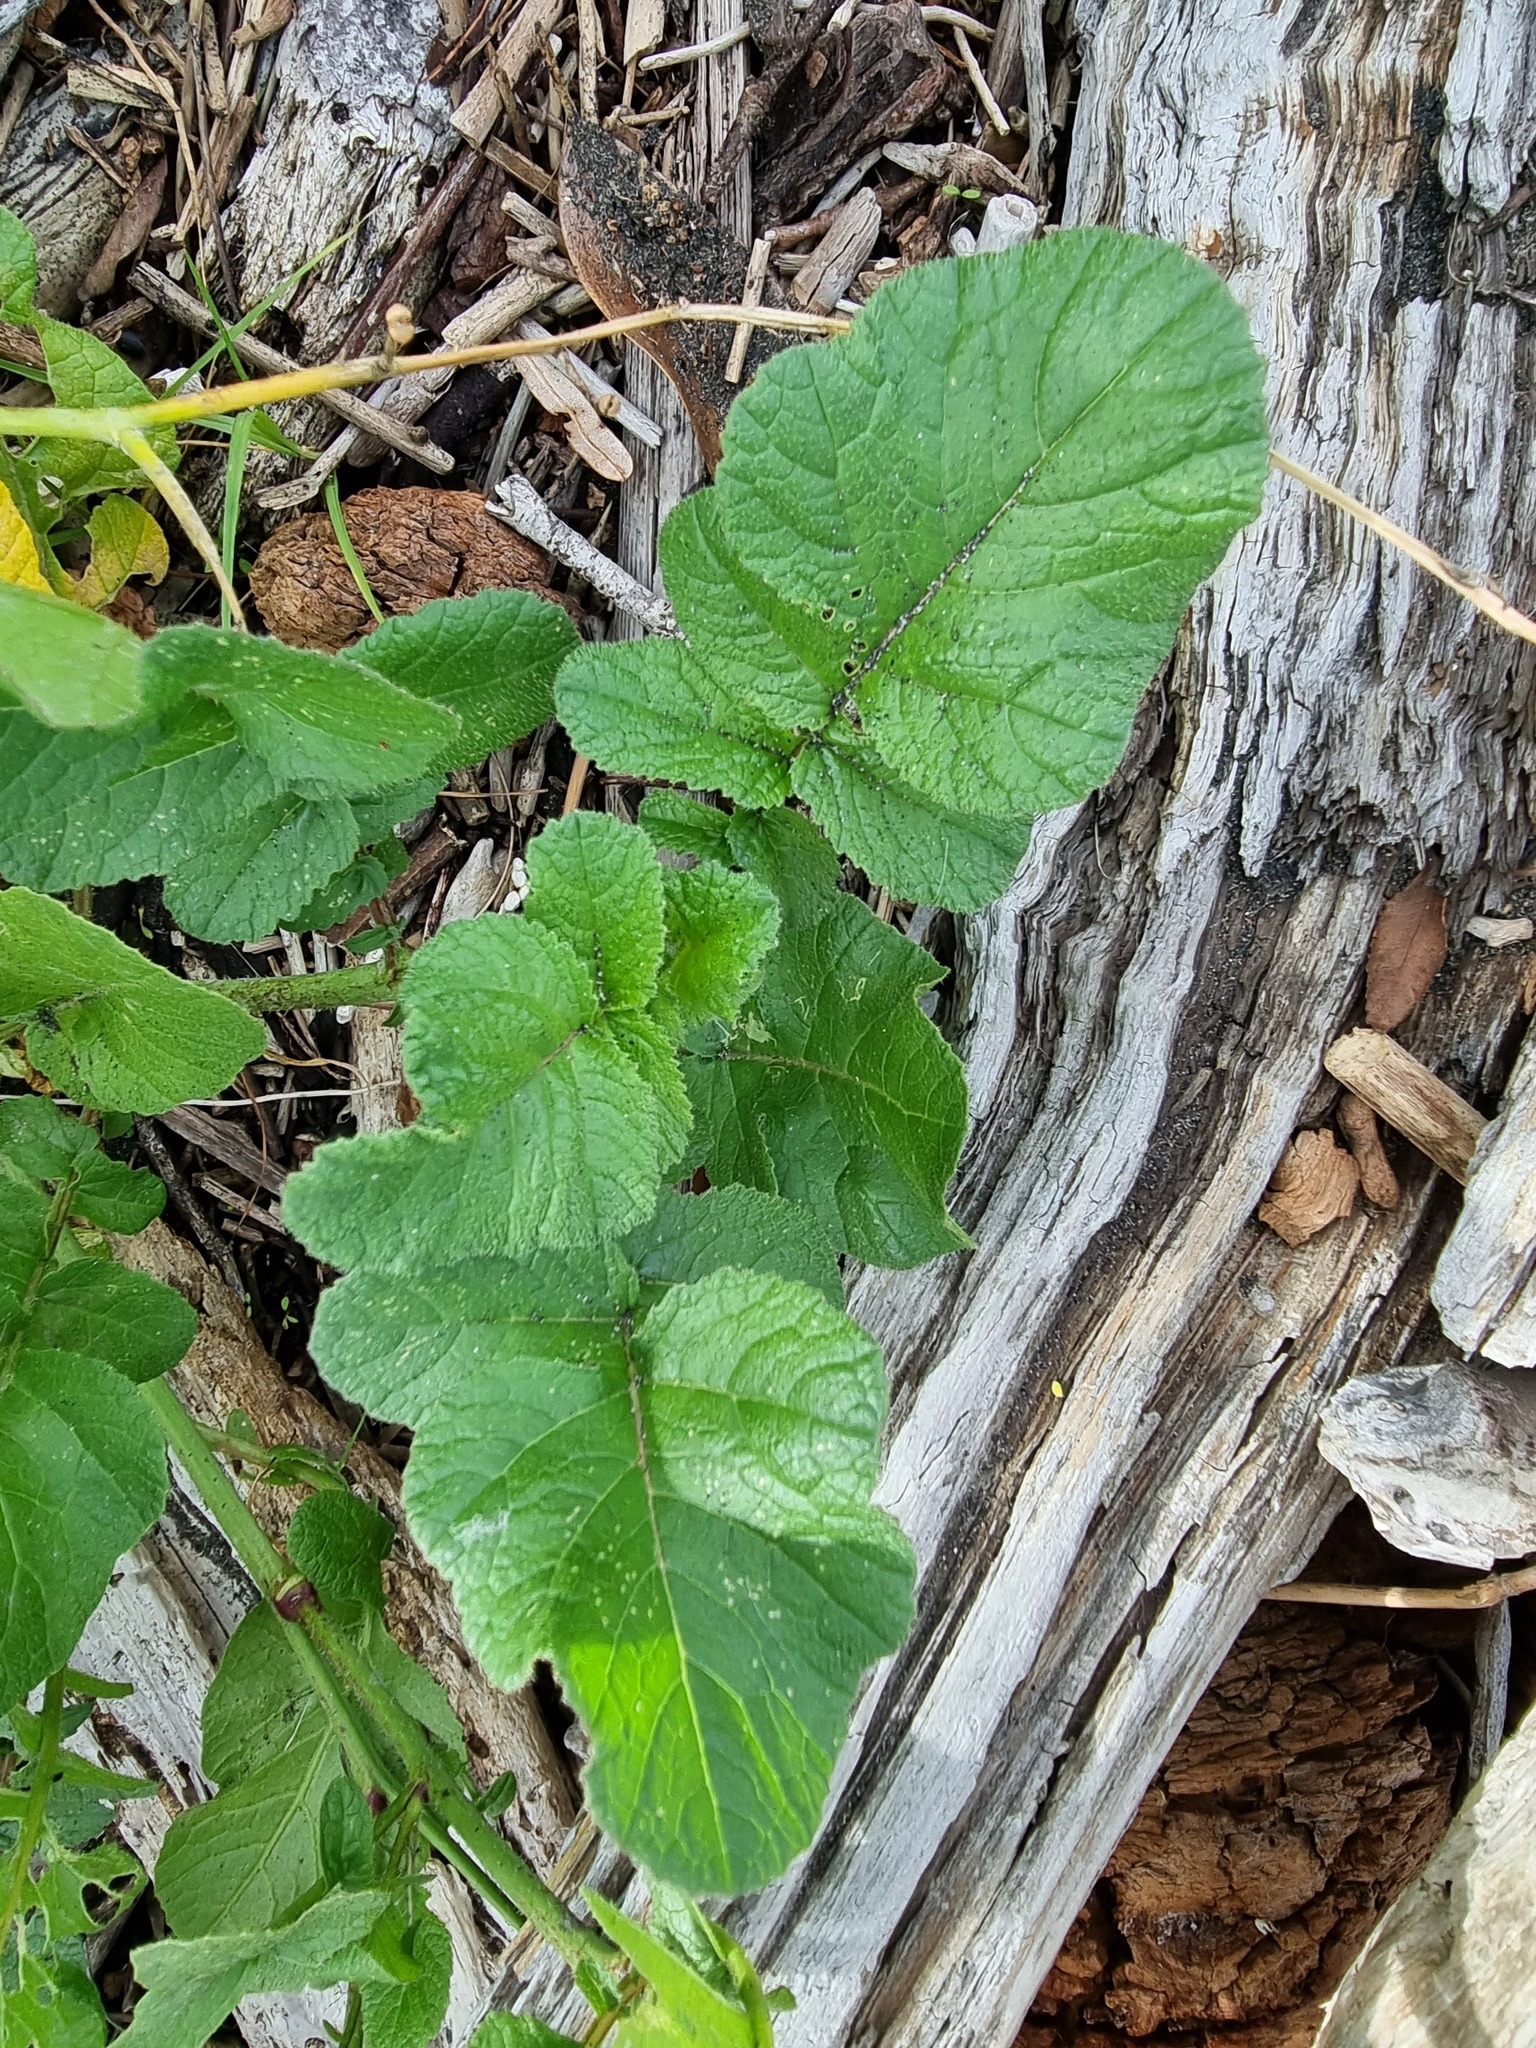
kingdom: Plantae
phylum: Tracheophyta
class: Magnoliopsida
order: Brassicales
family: Brassicaceae
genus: Raphanus
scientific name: Raphanus raphanistrum
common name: Wild radish
